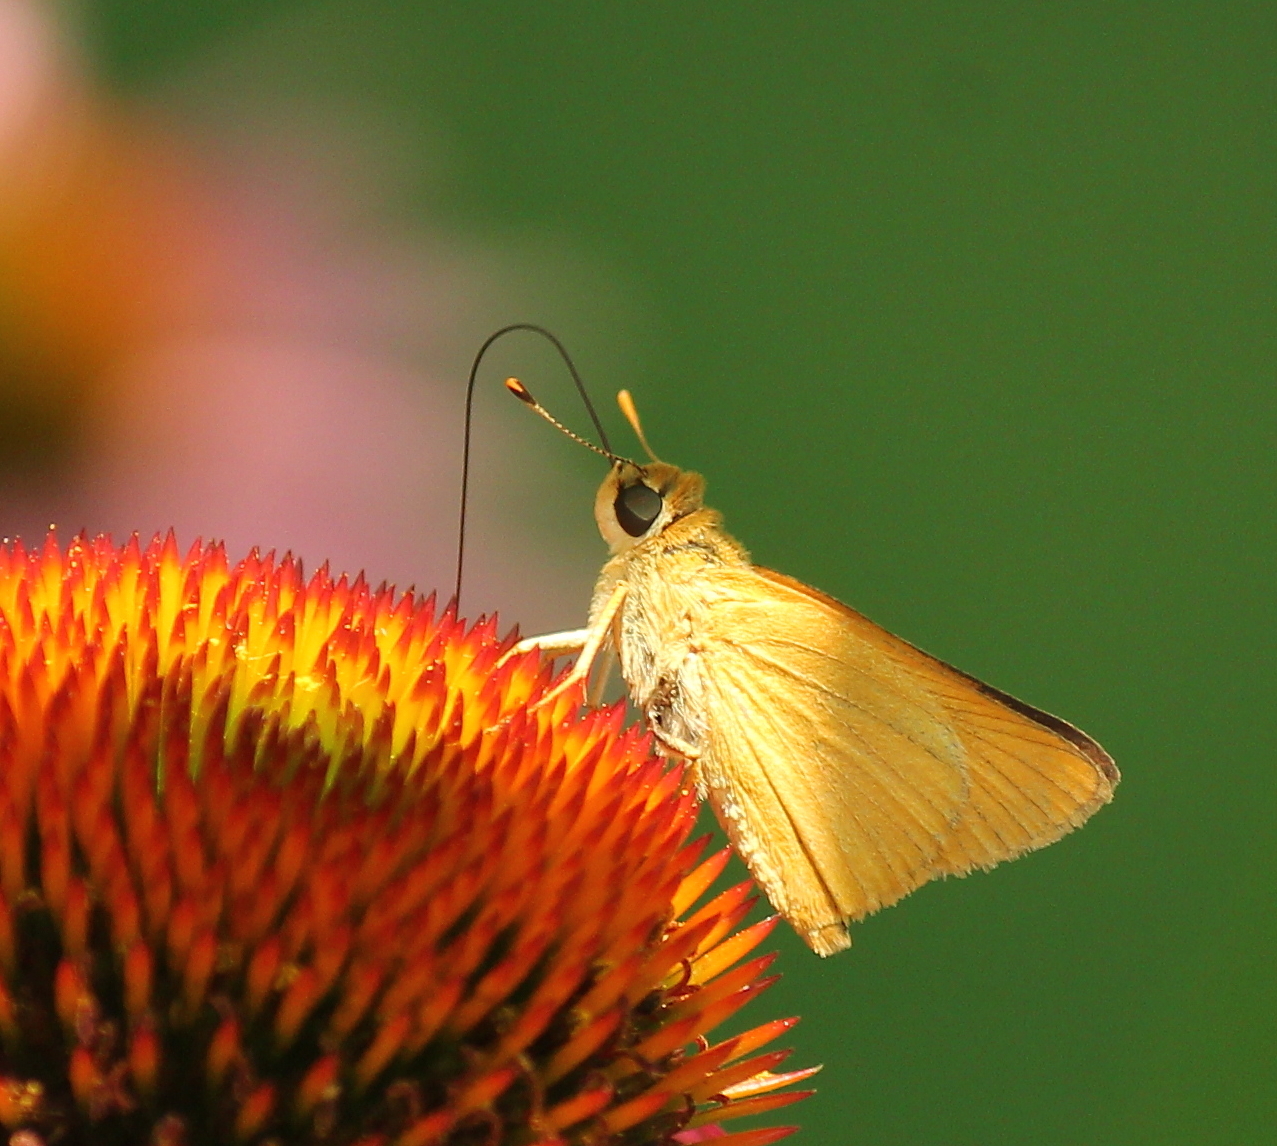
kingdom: Animalia
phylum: Arthropoda
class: Insecta
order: Lepidoptera
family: Hesperiidae
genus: Atrytone
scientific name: Atrytone delaware
